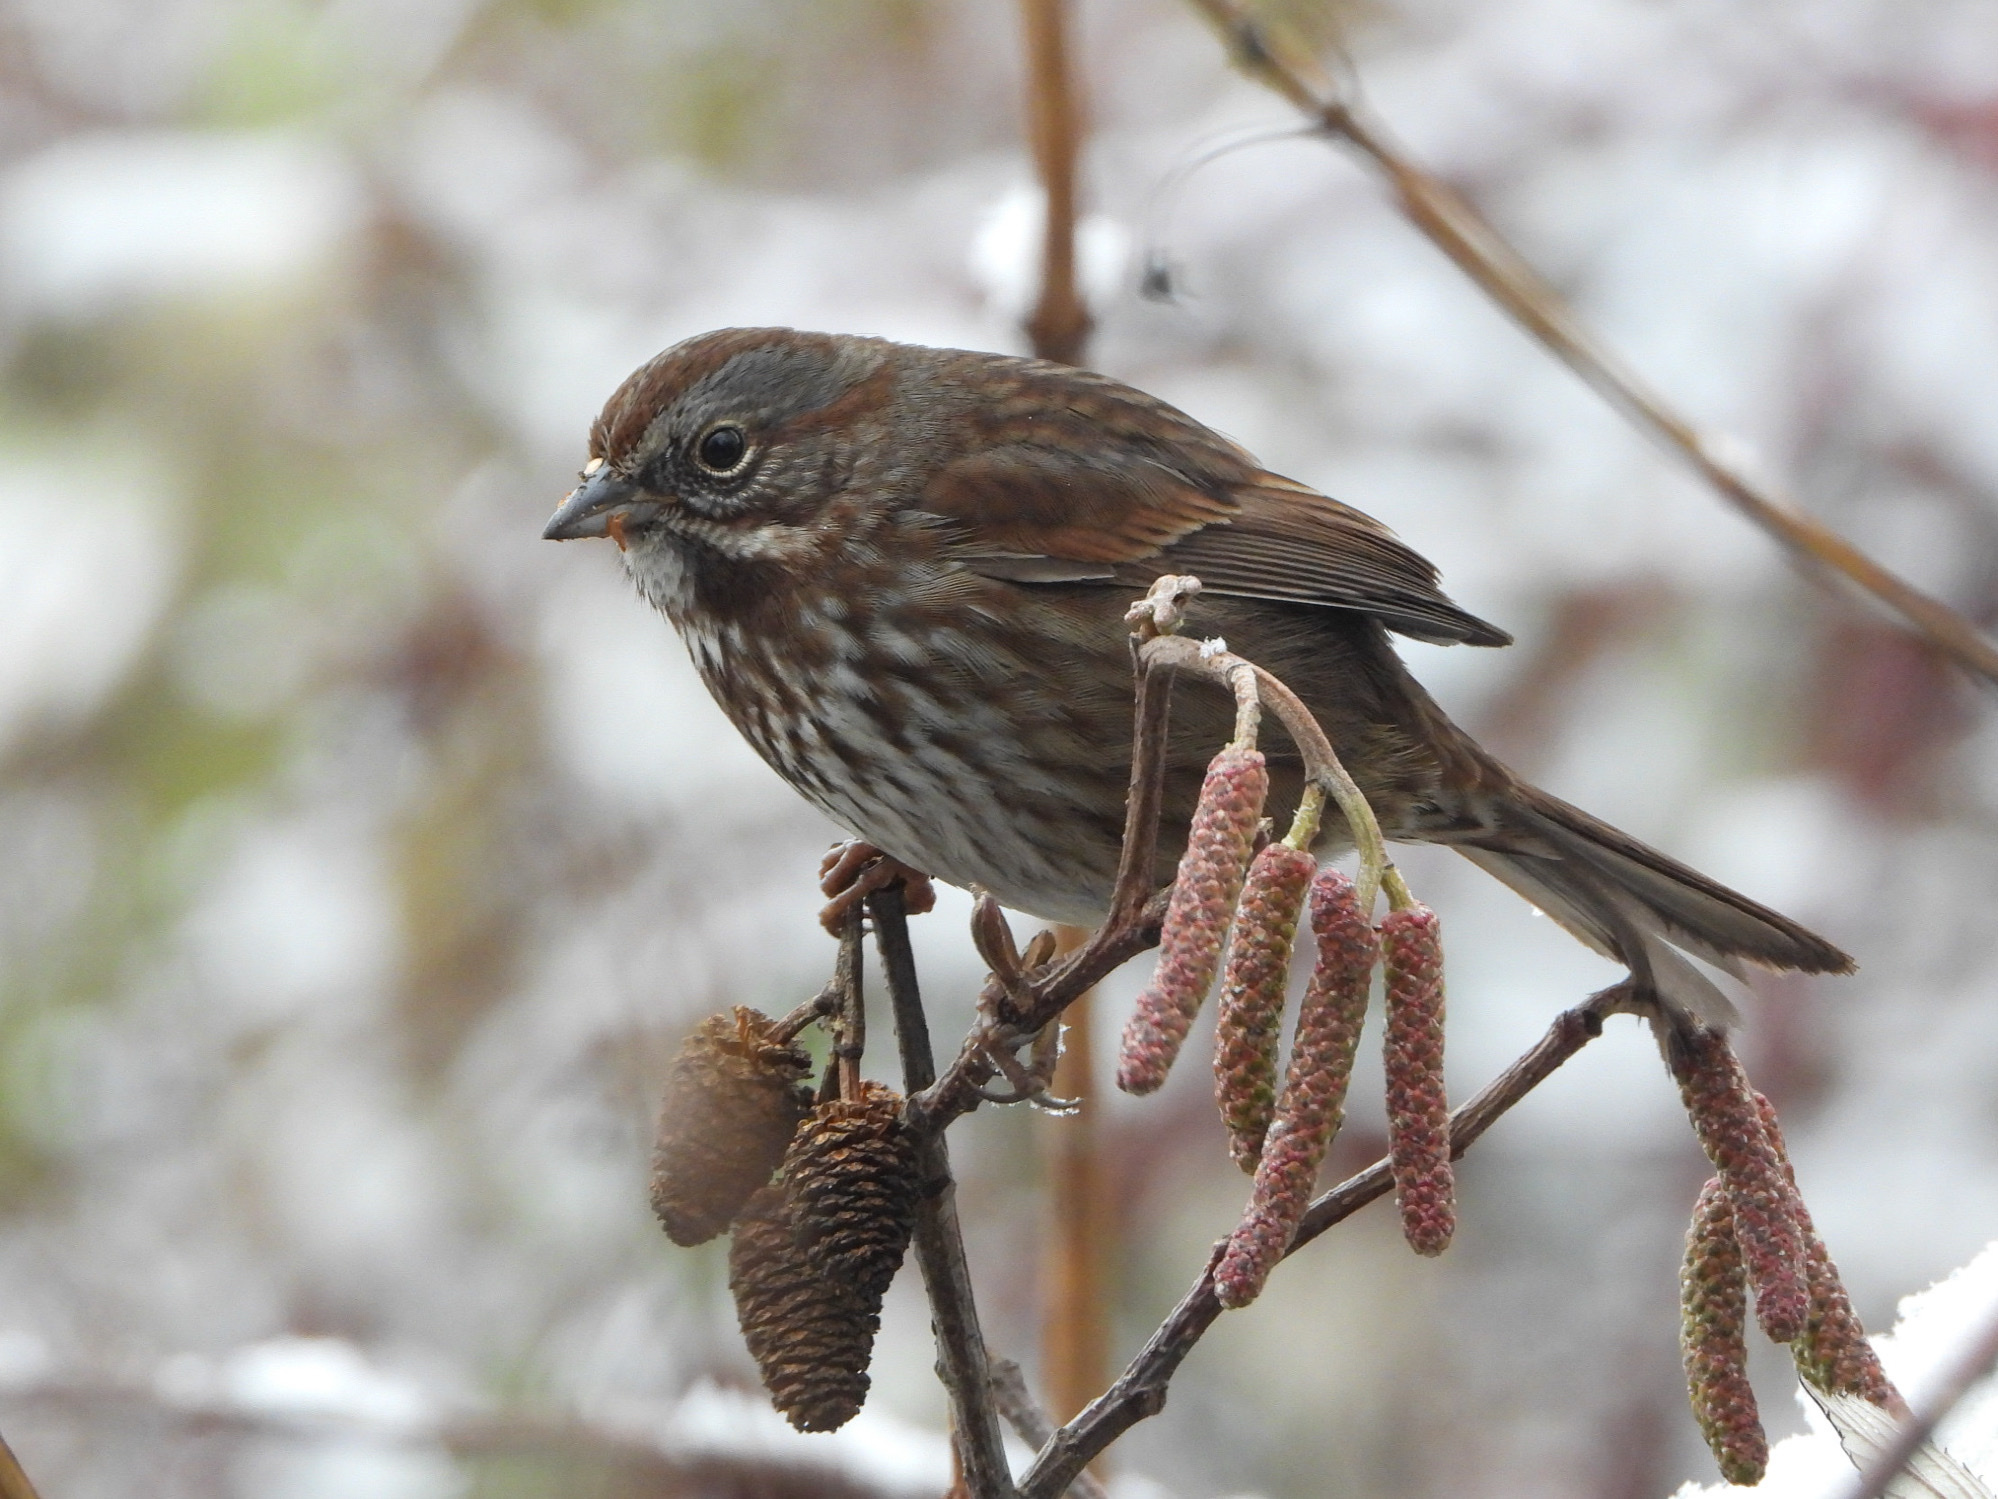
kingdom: Animalia
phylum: Chordata
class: Aves
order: Passeriformes
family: Passerellidae
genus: Melospiza
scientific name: Melospiza melodia
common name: Song sparrow
